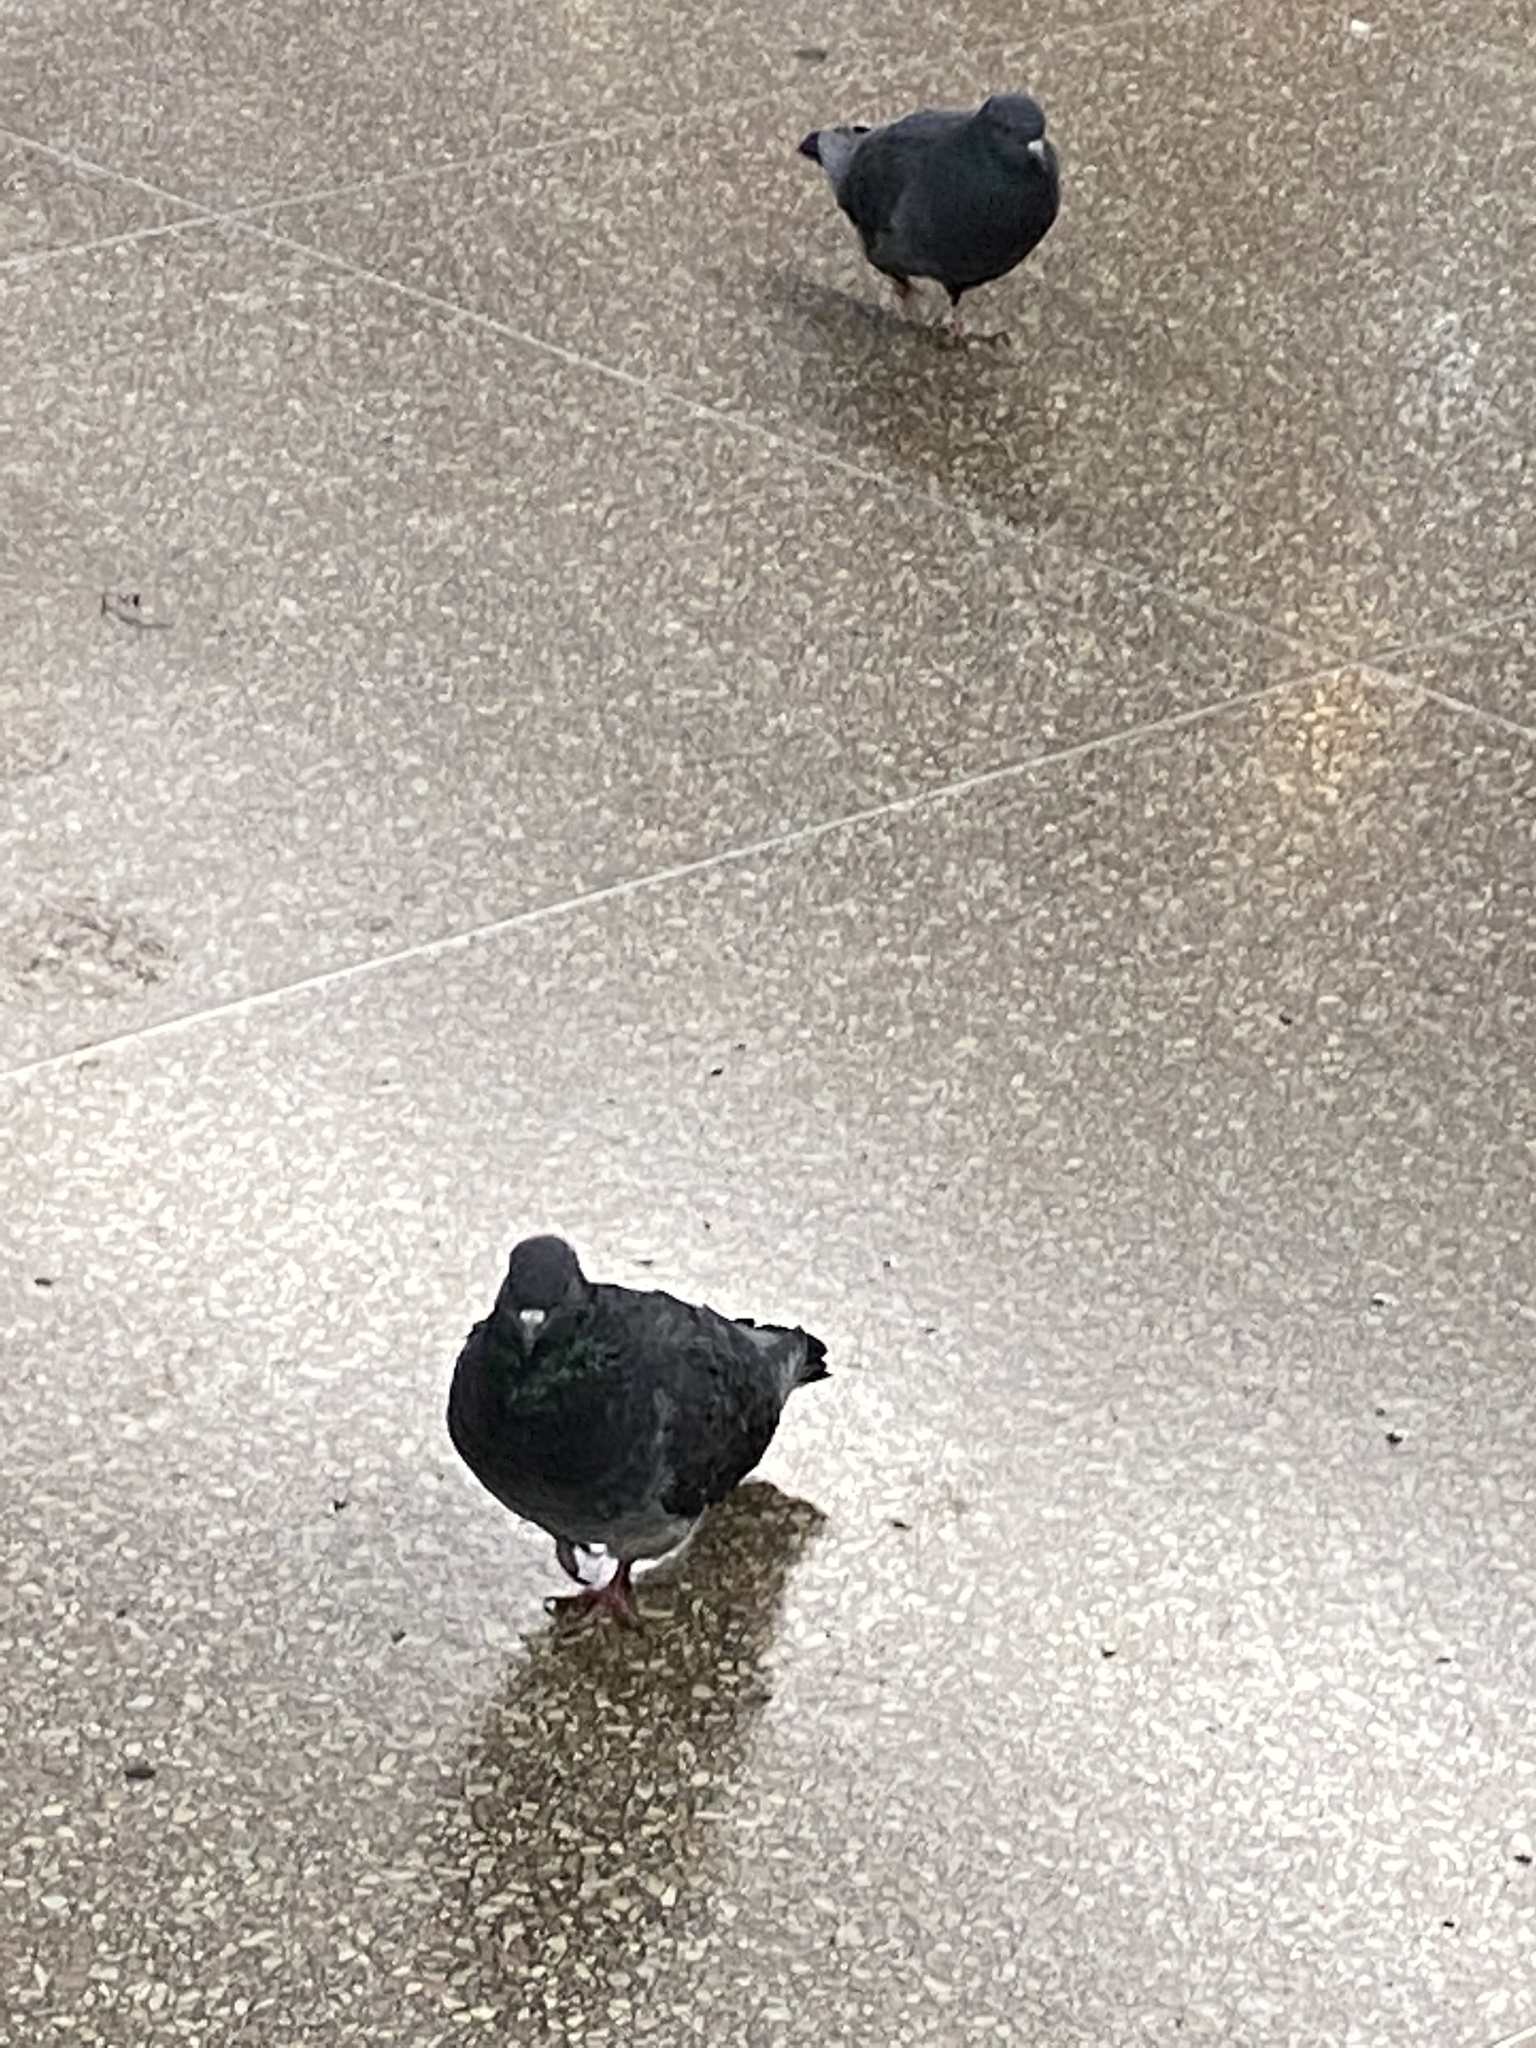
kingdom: Animalia
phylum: Chordata
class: Aves
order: Columbiformes
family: Columbidae
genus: Columba
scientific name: Columba livia
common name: Rock pigeon
